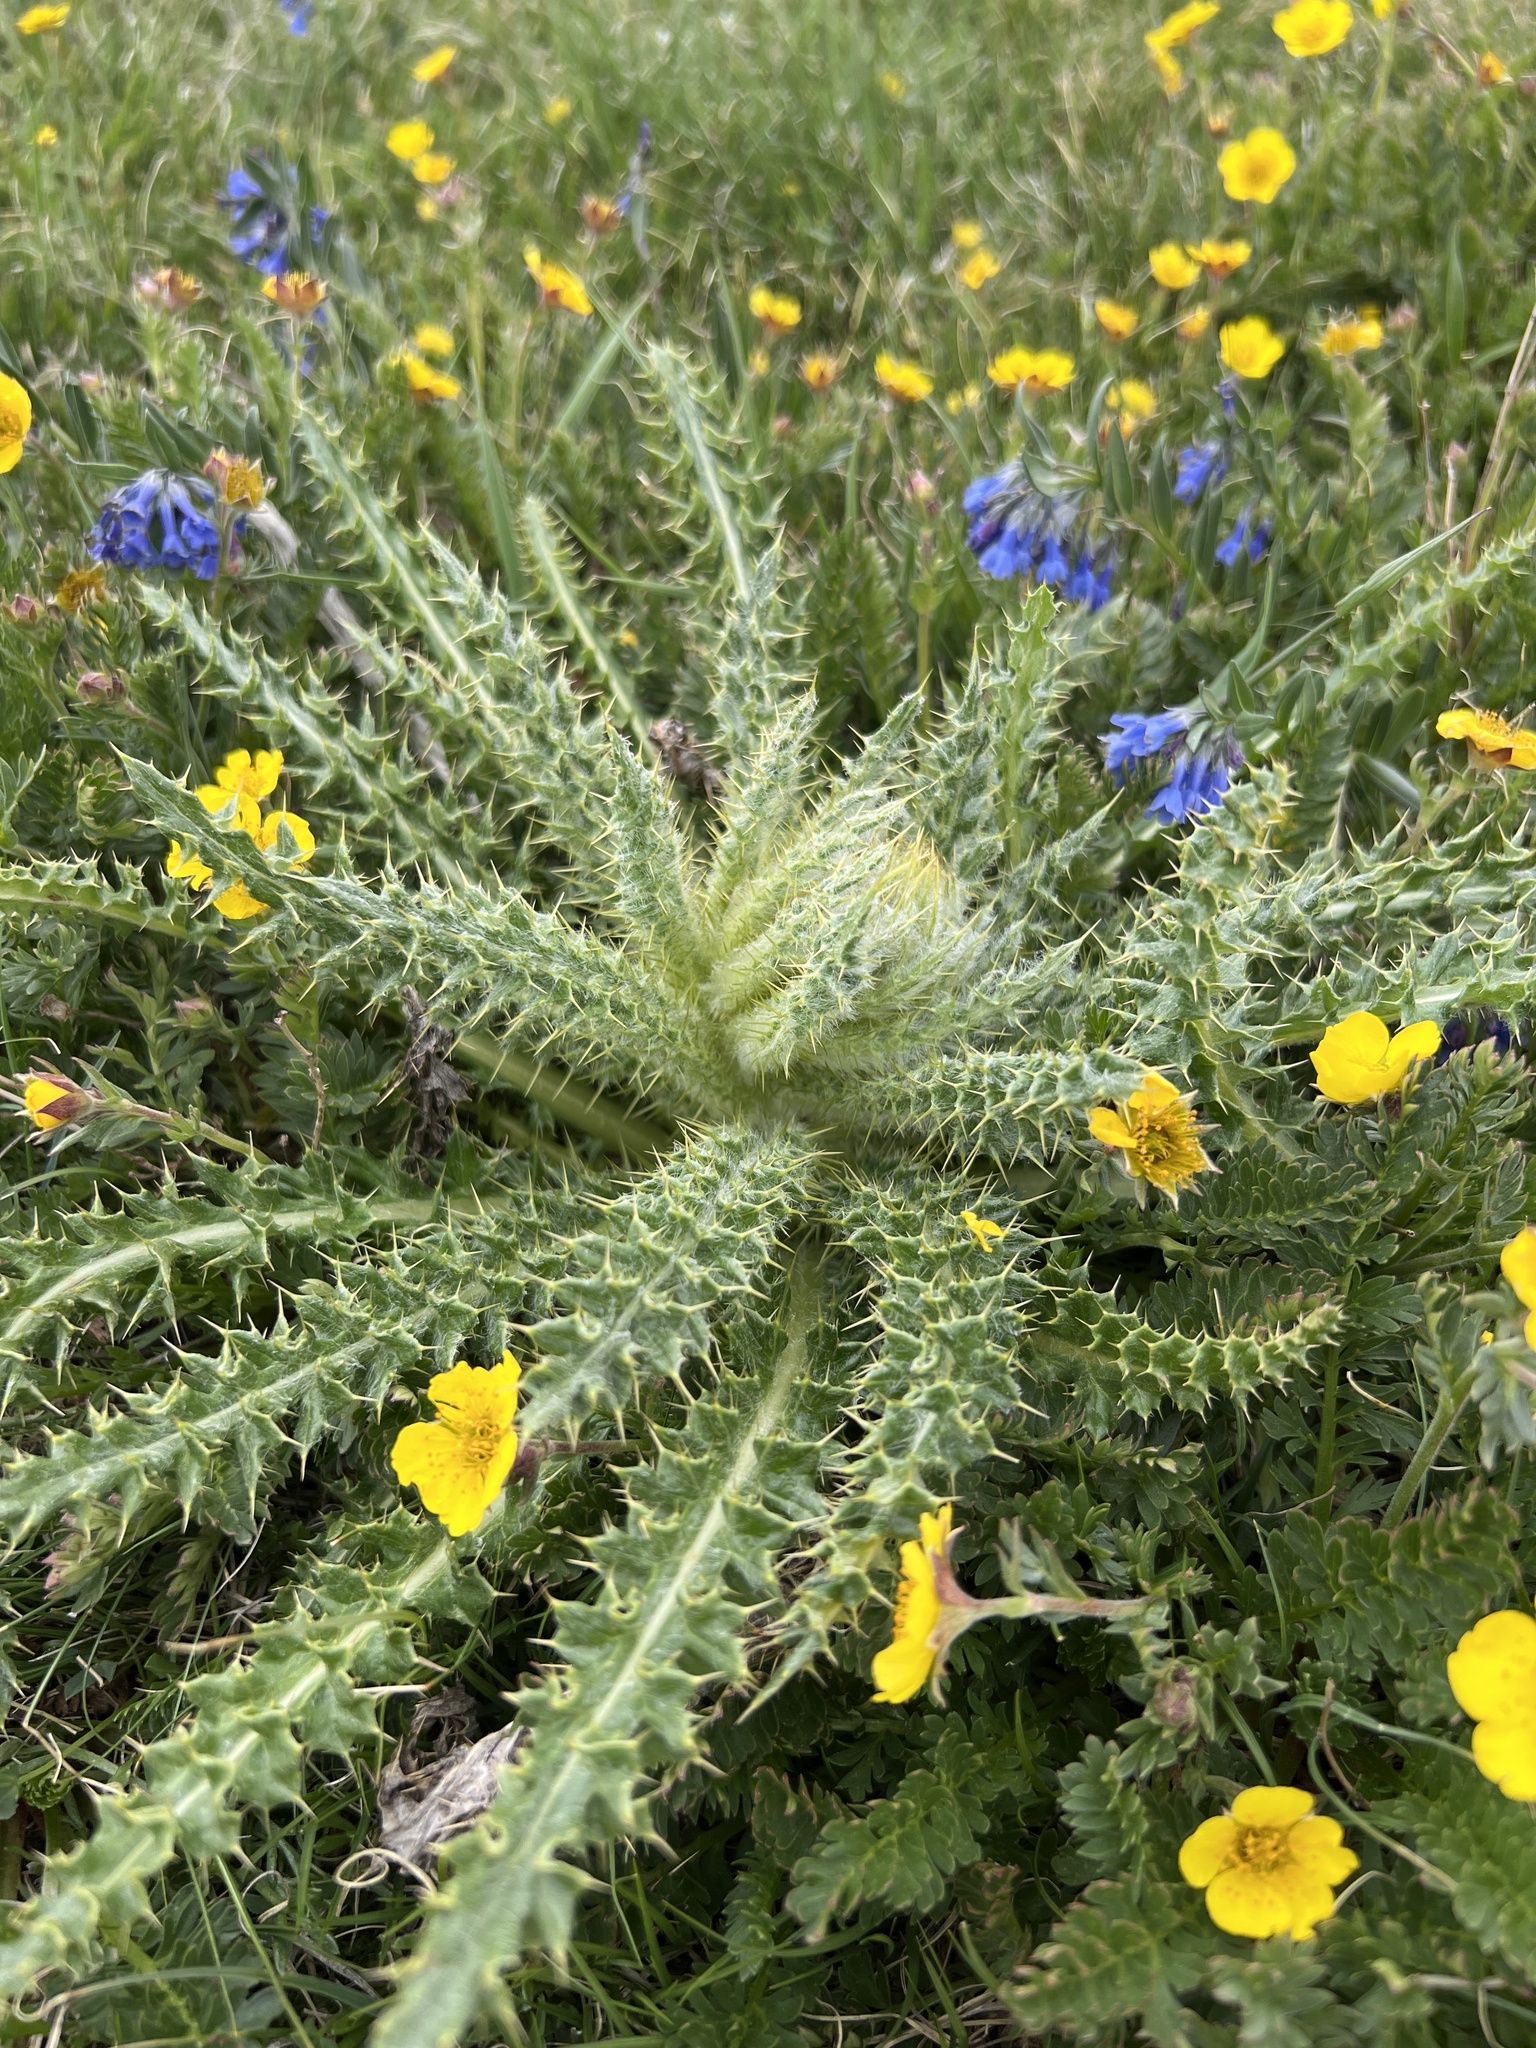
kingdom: Plantae
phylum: Tracheophyta
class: Magnoliopsida
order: Asterales
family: Asteraceae
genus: Cirsium
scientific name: Cirsium scopulorum
